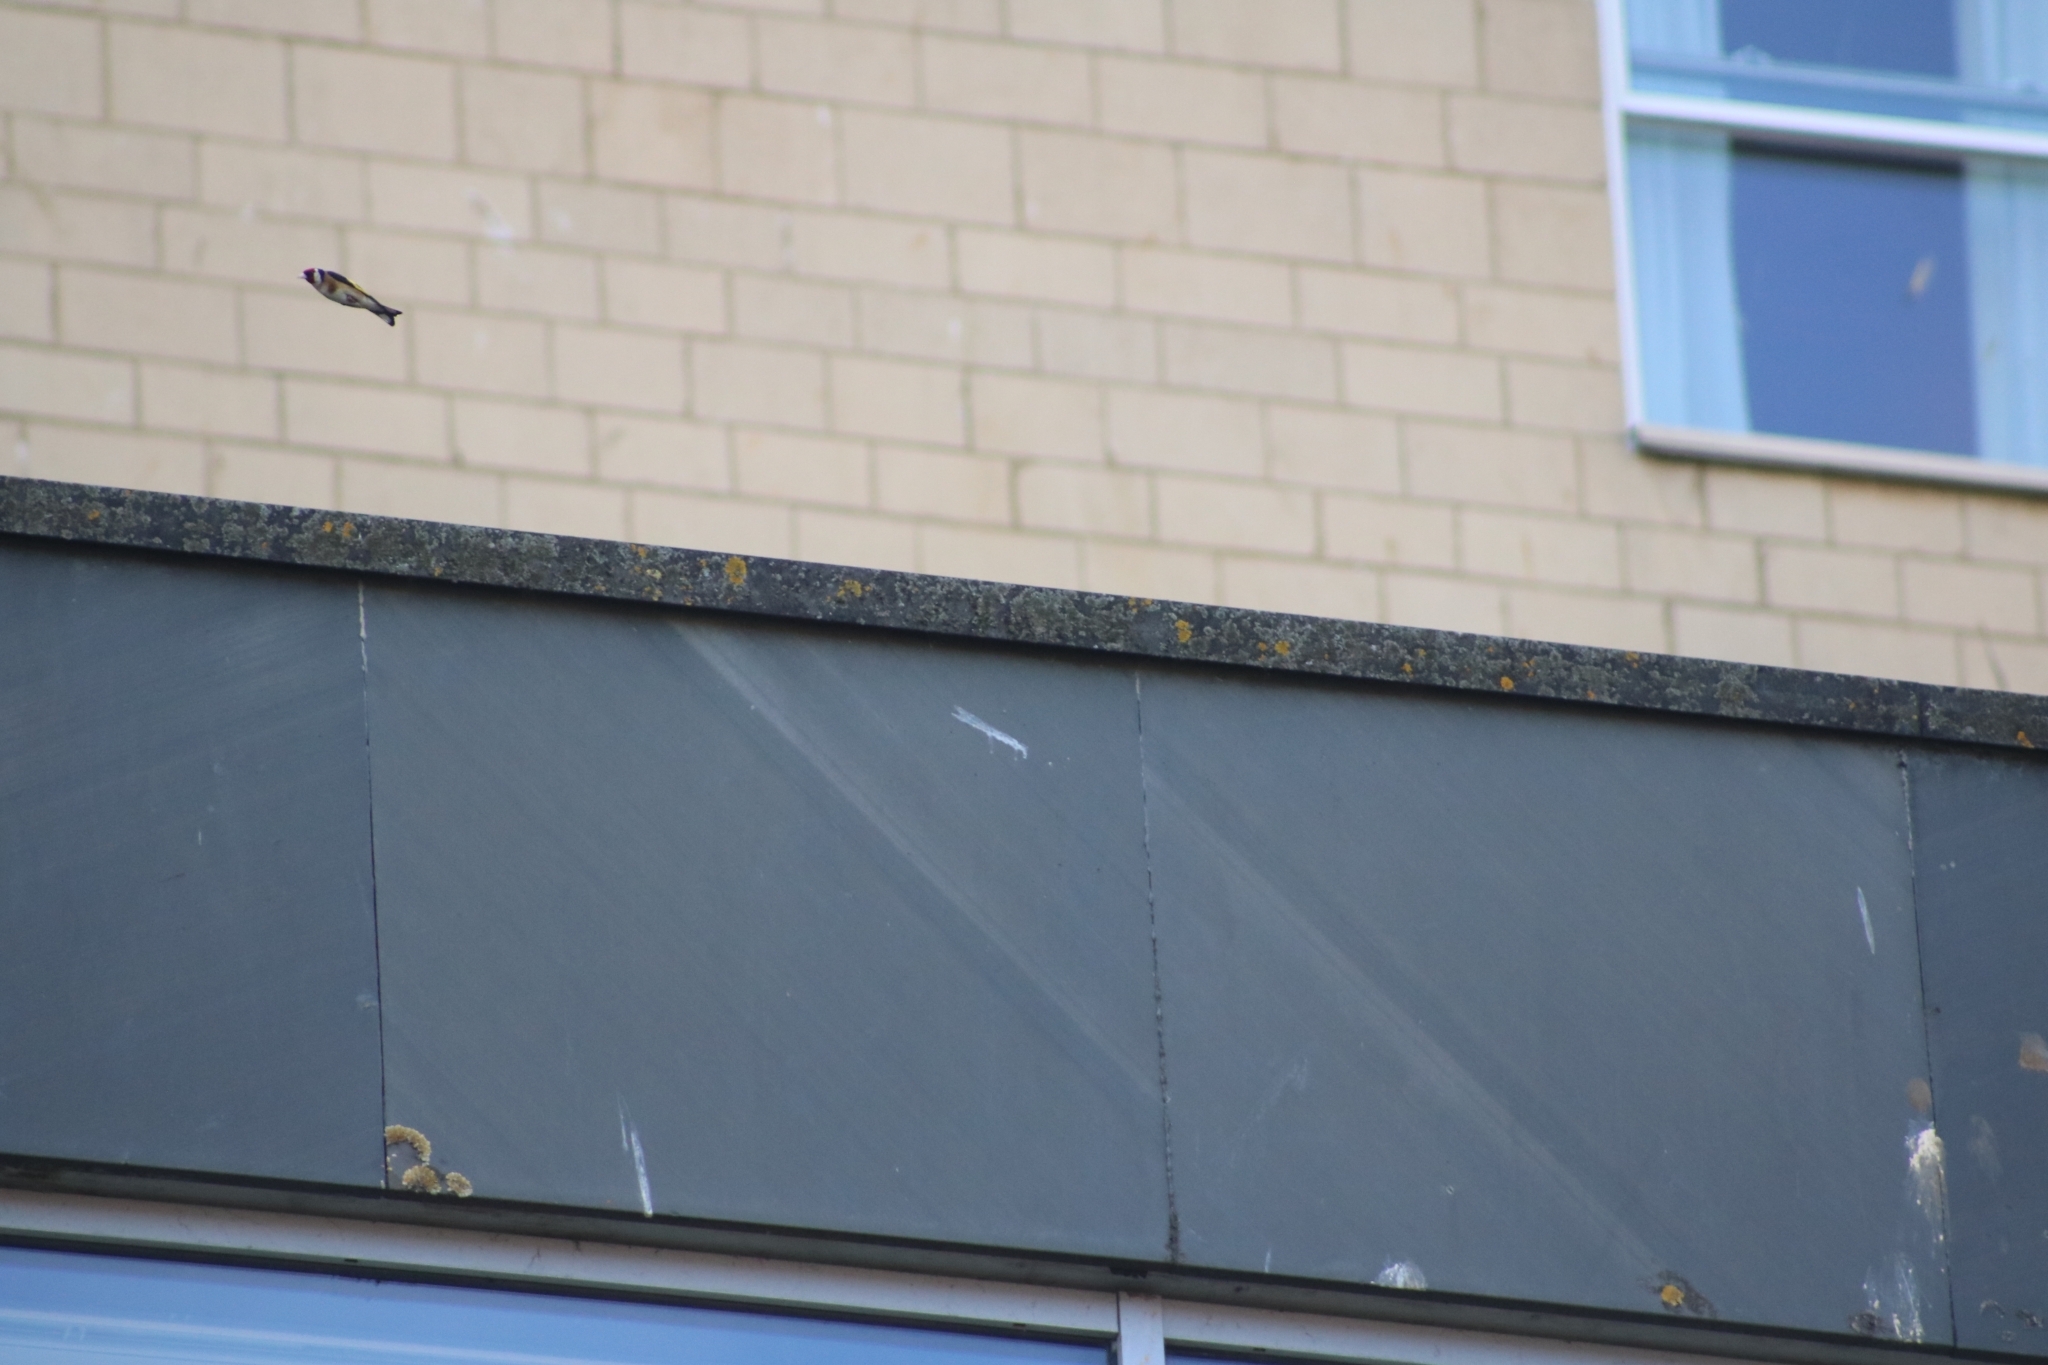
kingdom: Animalia
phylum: Chordata
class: Aves
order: Passeriformes
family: Fringillidae
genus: Carduelis
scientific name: Carduelis carduelis
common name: European goldfinch
